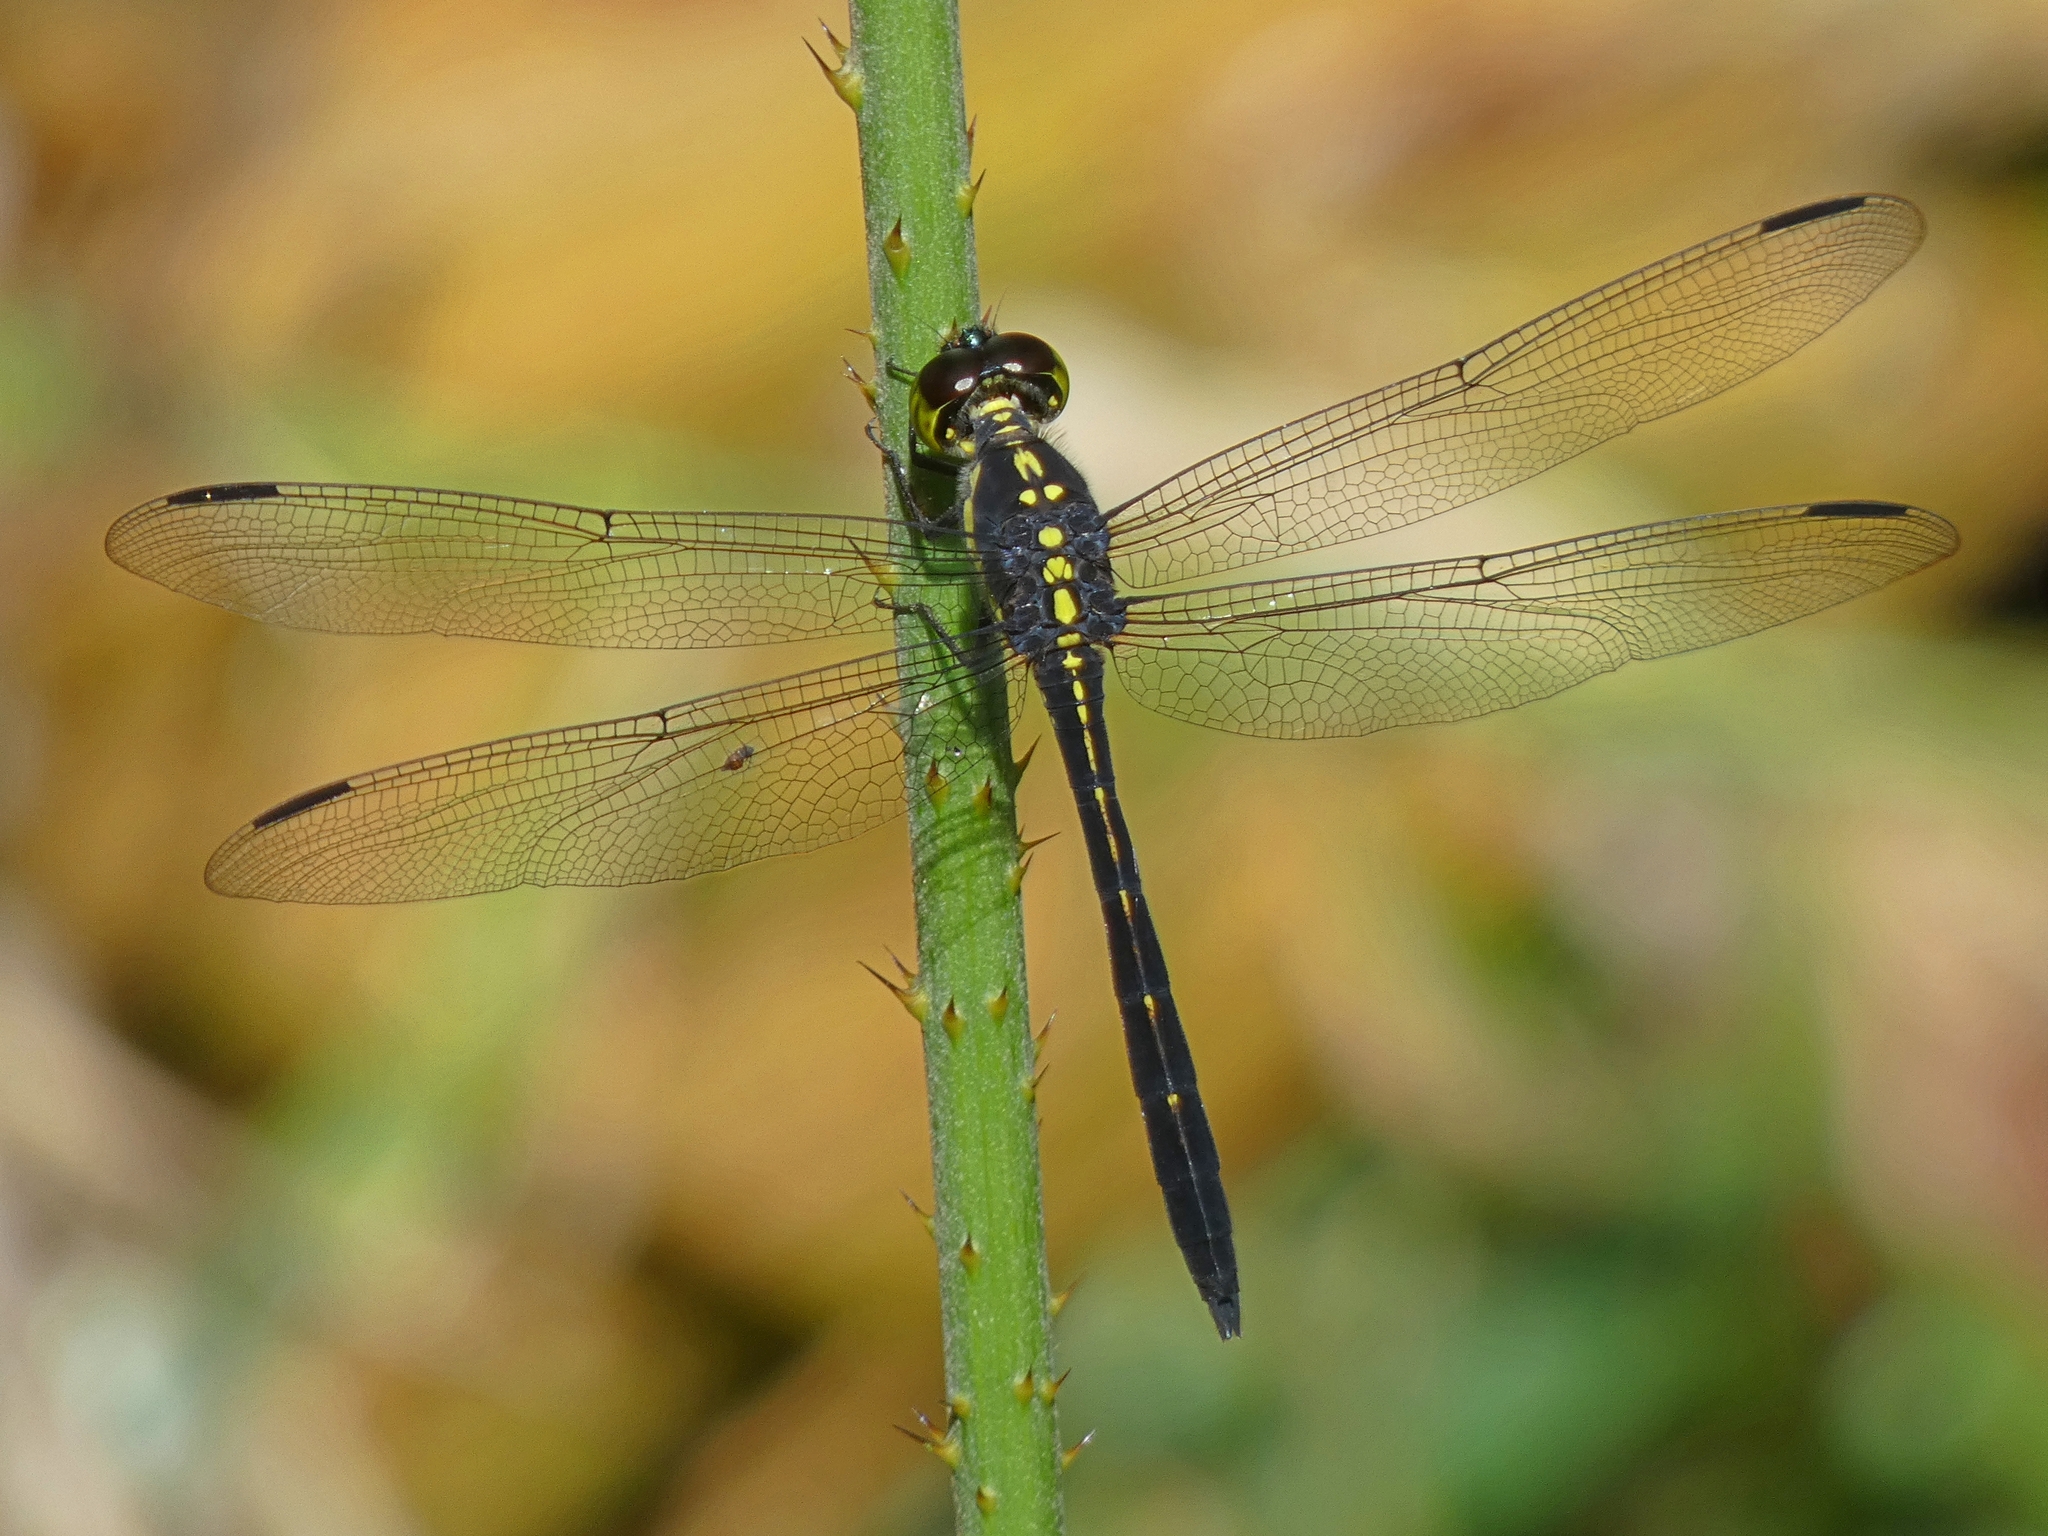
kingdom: Animalia
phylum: Arthropoda
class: Insecta
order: Odonata
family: Libellulidae
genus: Agrionoptera
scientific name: Agrionoptera longitudinalis
